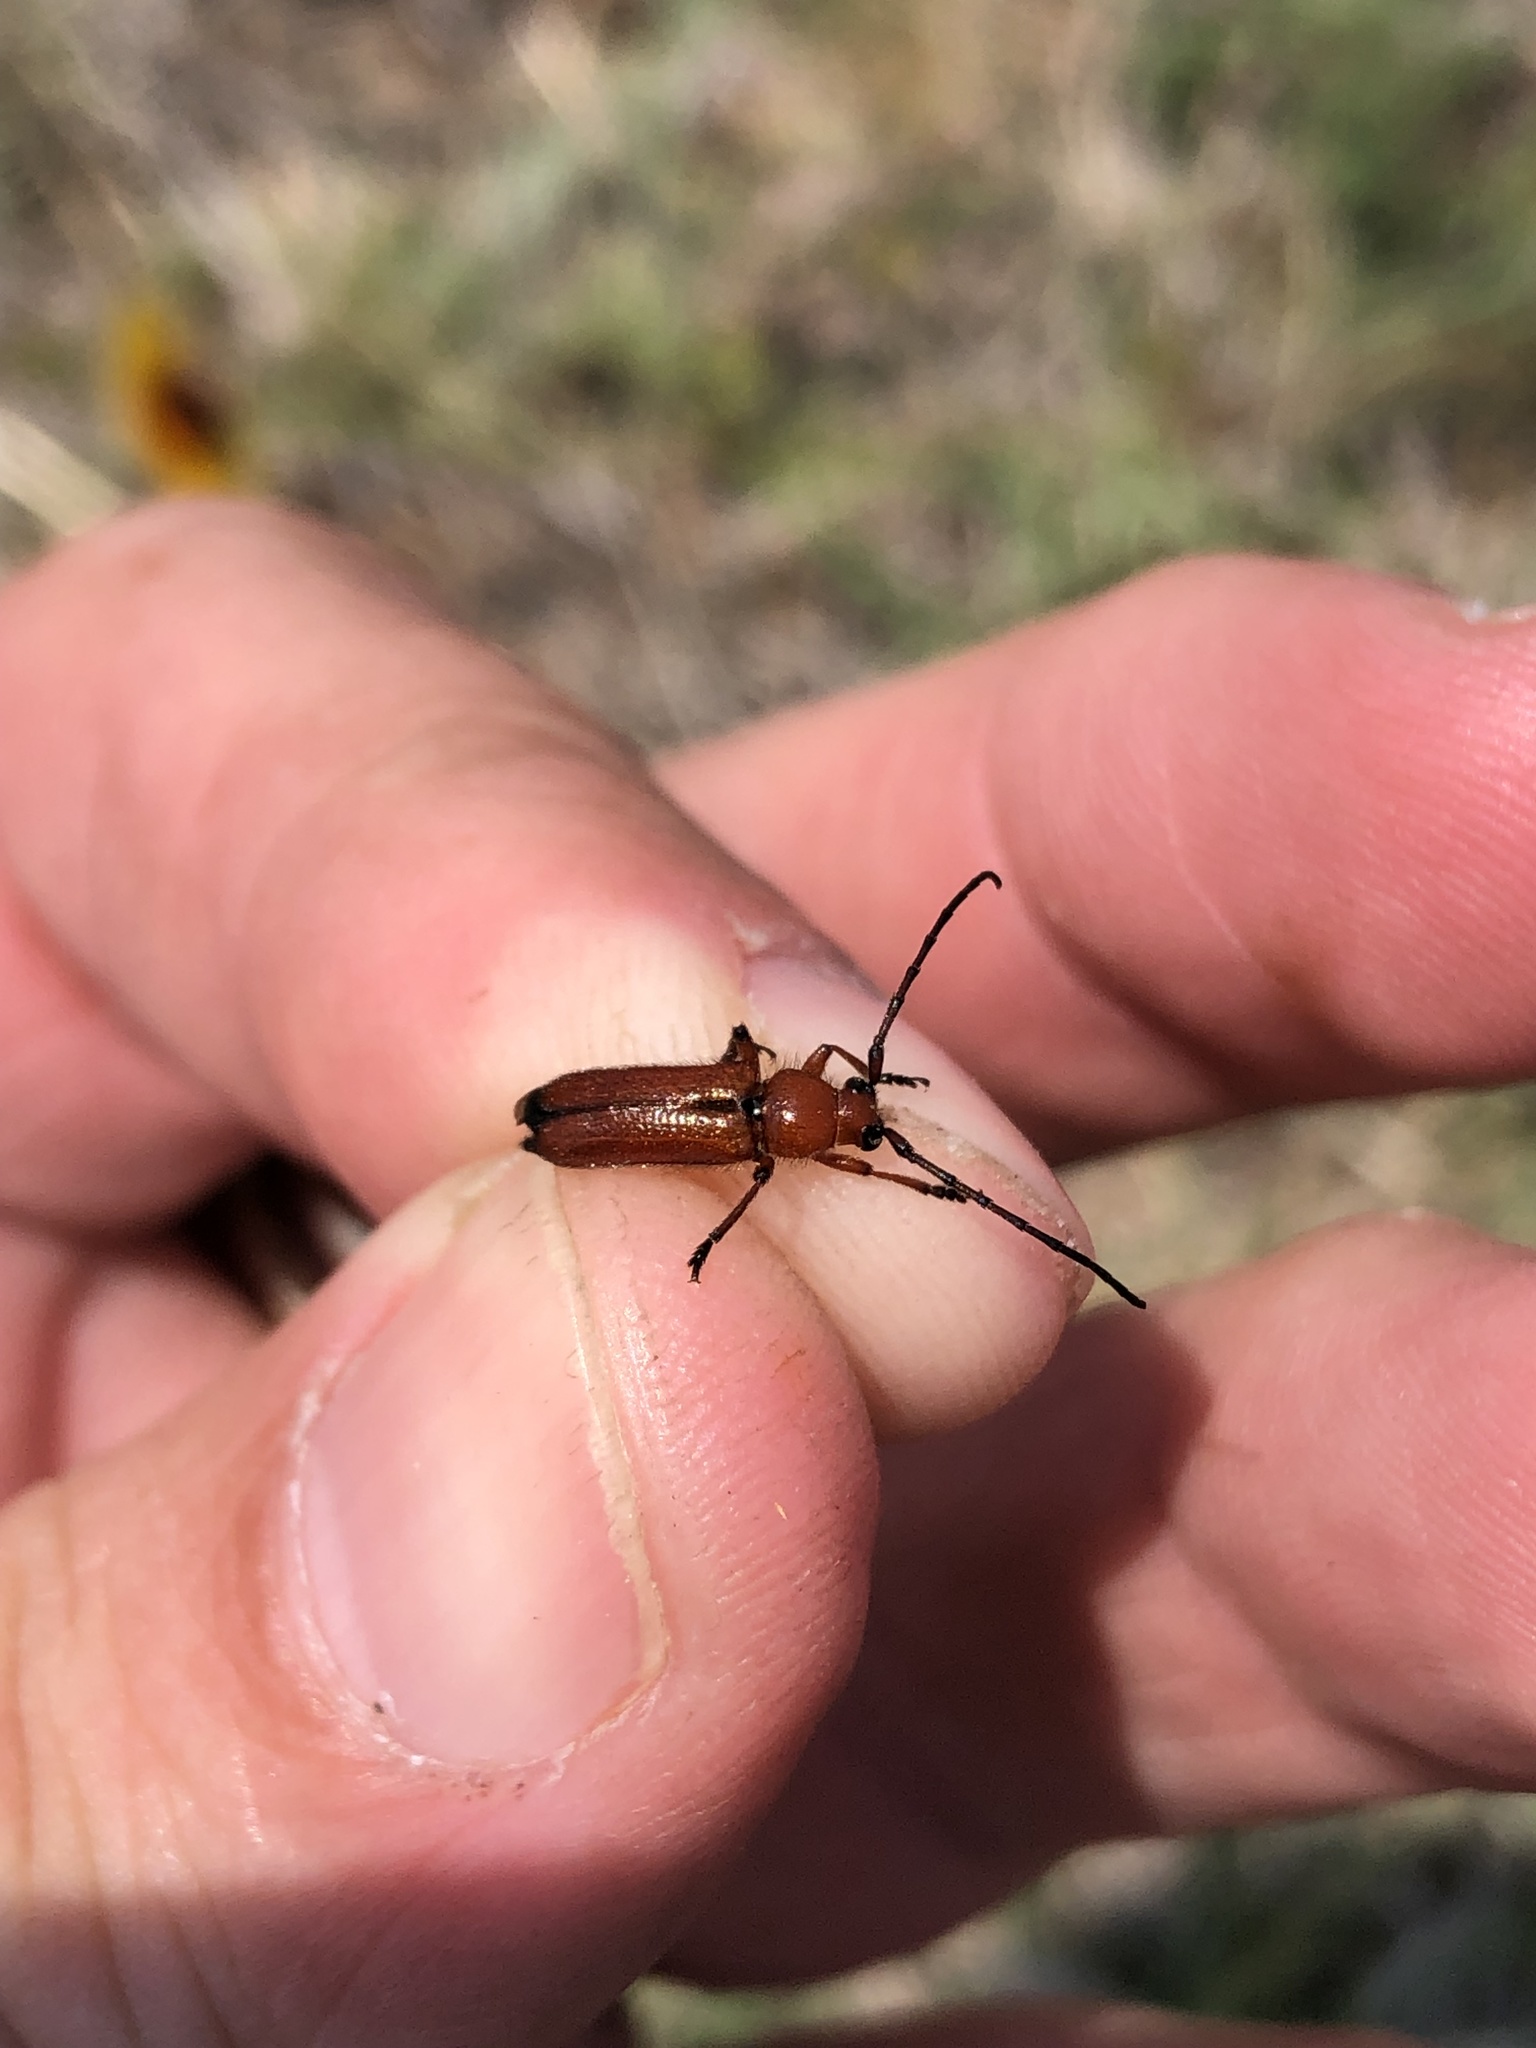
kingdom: Animalia
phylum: Arthropoda
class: Insecta
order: Coleoptera
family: Cerambycidae
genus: Batyle
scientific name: Batyle suturalis
